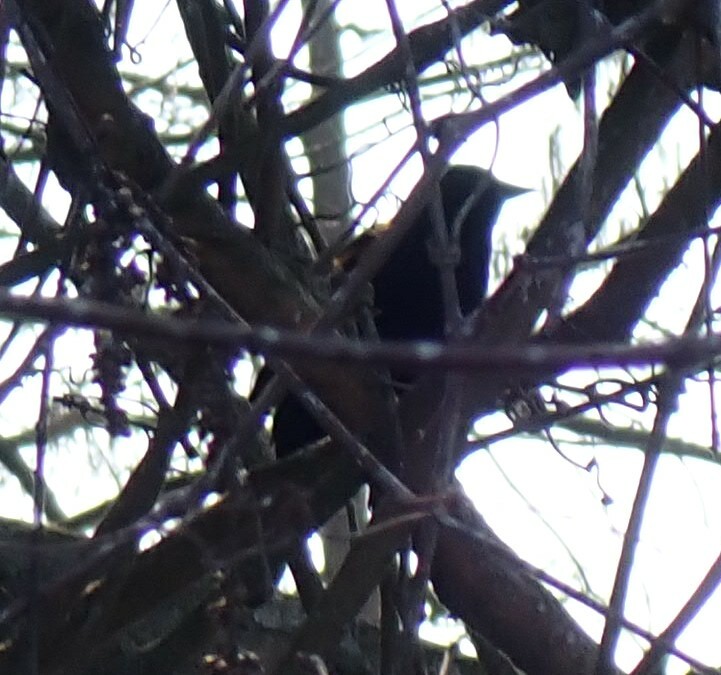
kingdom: Animalia
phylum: Chordata
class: Aves
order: Passeriformes
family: Icteridae
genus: Agelaius
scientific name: Agelaius phoeniceus
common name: Red-winged blackbird
